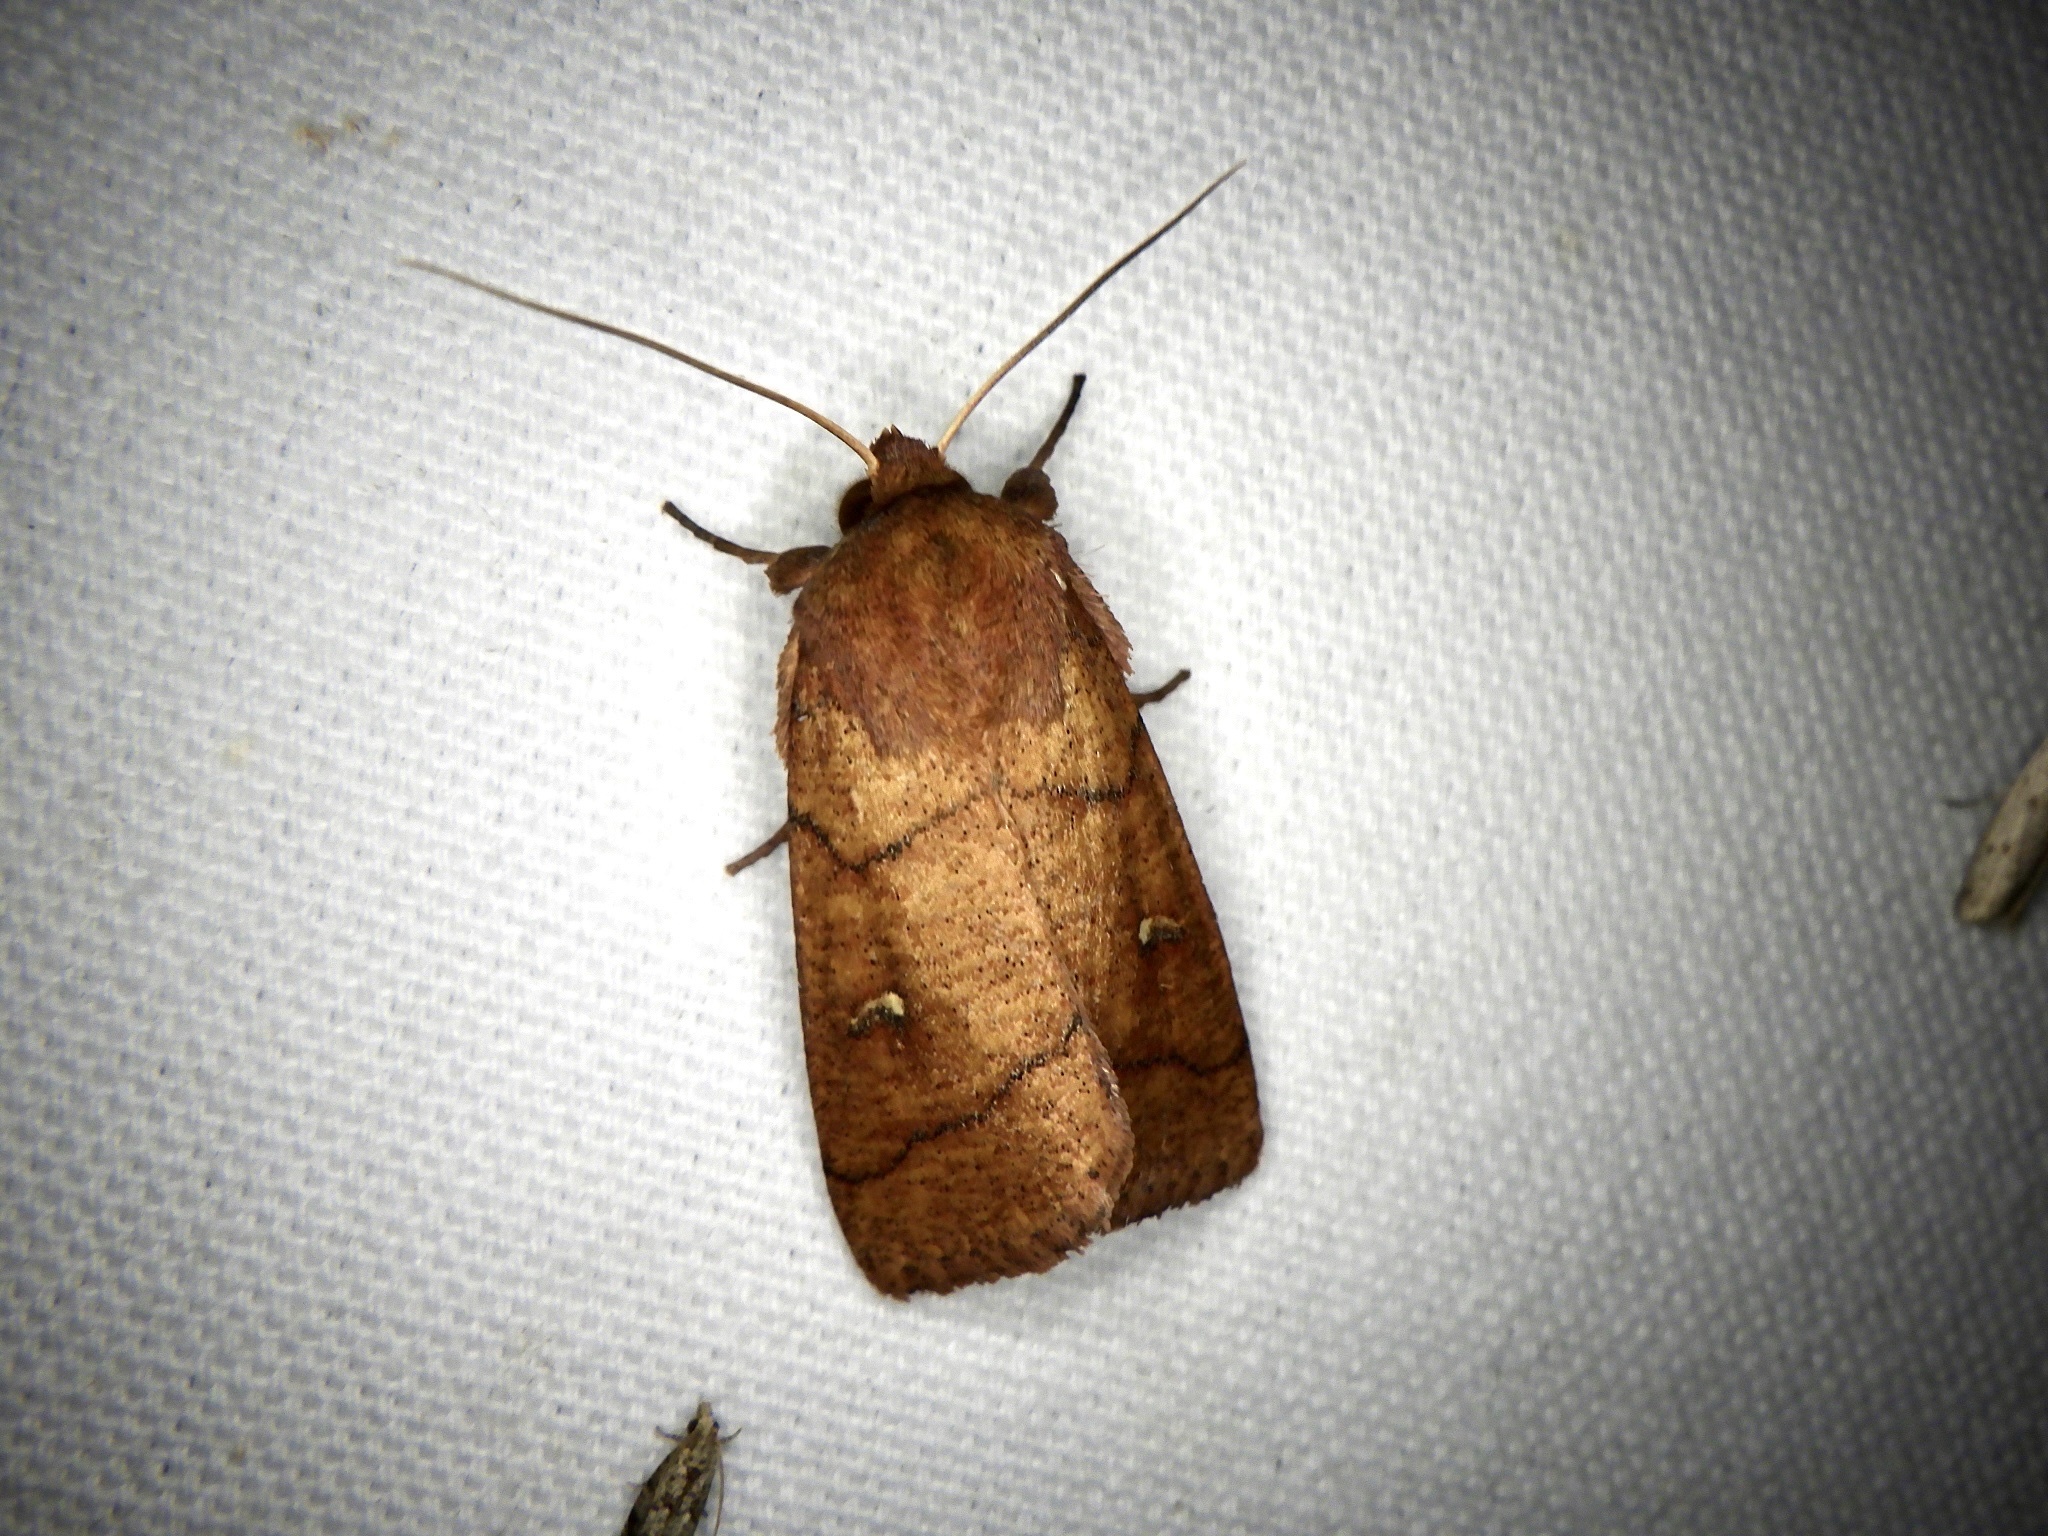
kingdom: Animalia
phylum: Arthropoda
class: Insecta
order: Lepidoptera
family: Noctuidae
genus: Mythimna
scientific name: Mythimna turca
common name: Double line
